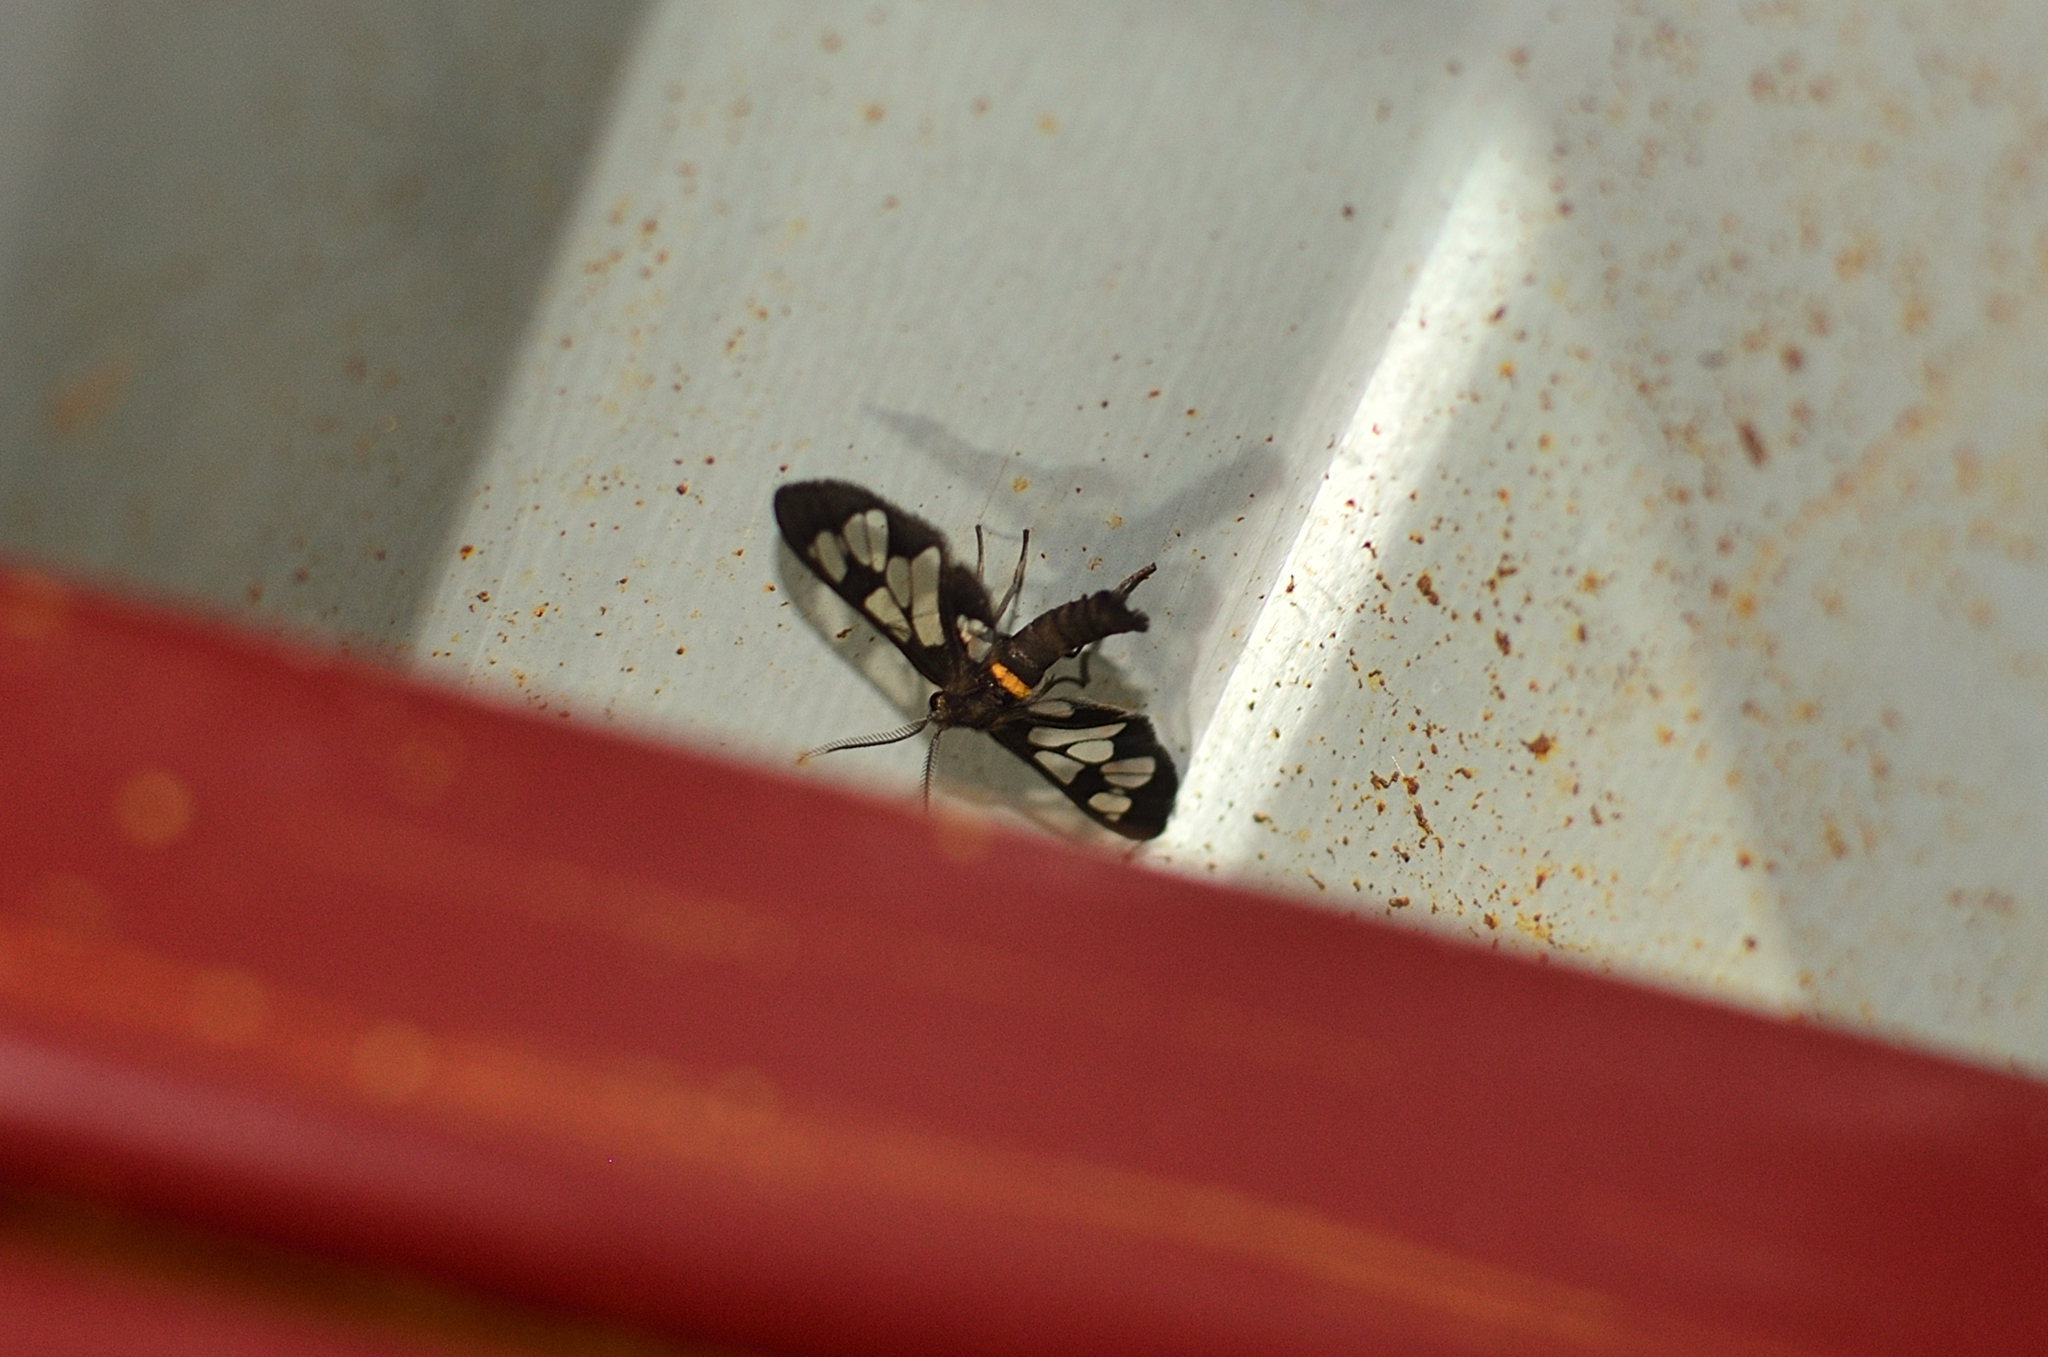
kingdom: Animalia
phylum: Arthropoda
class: Insecta
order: Lepidoptera
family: Erebidae
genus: Syntomoides
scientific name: Syntomoides imaon
